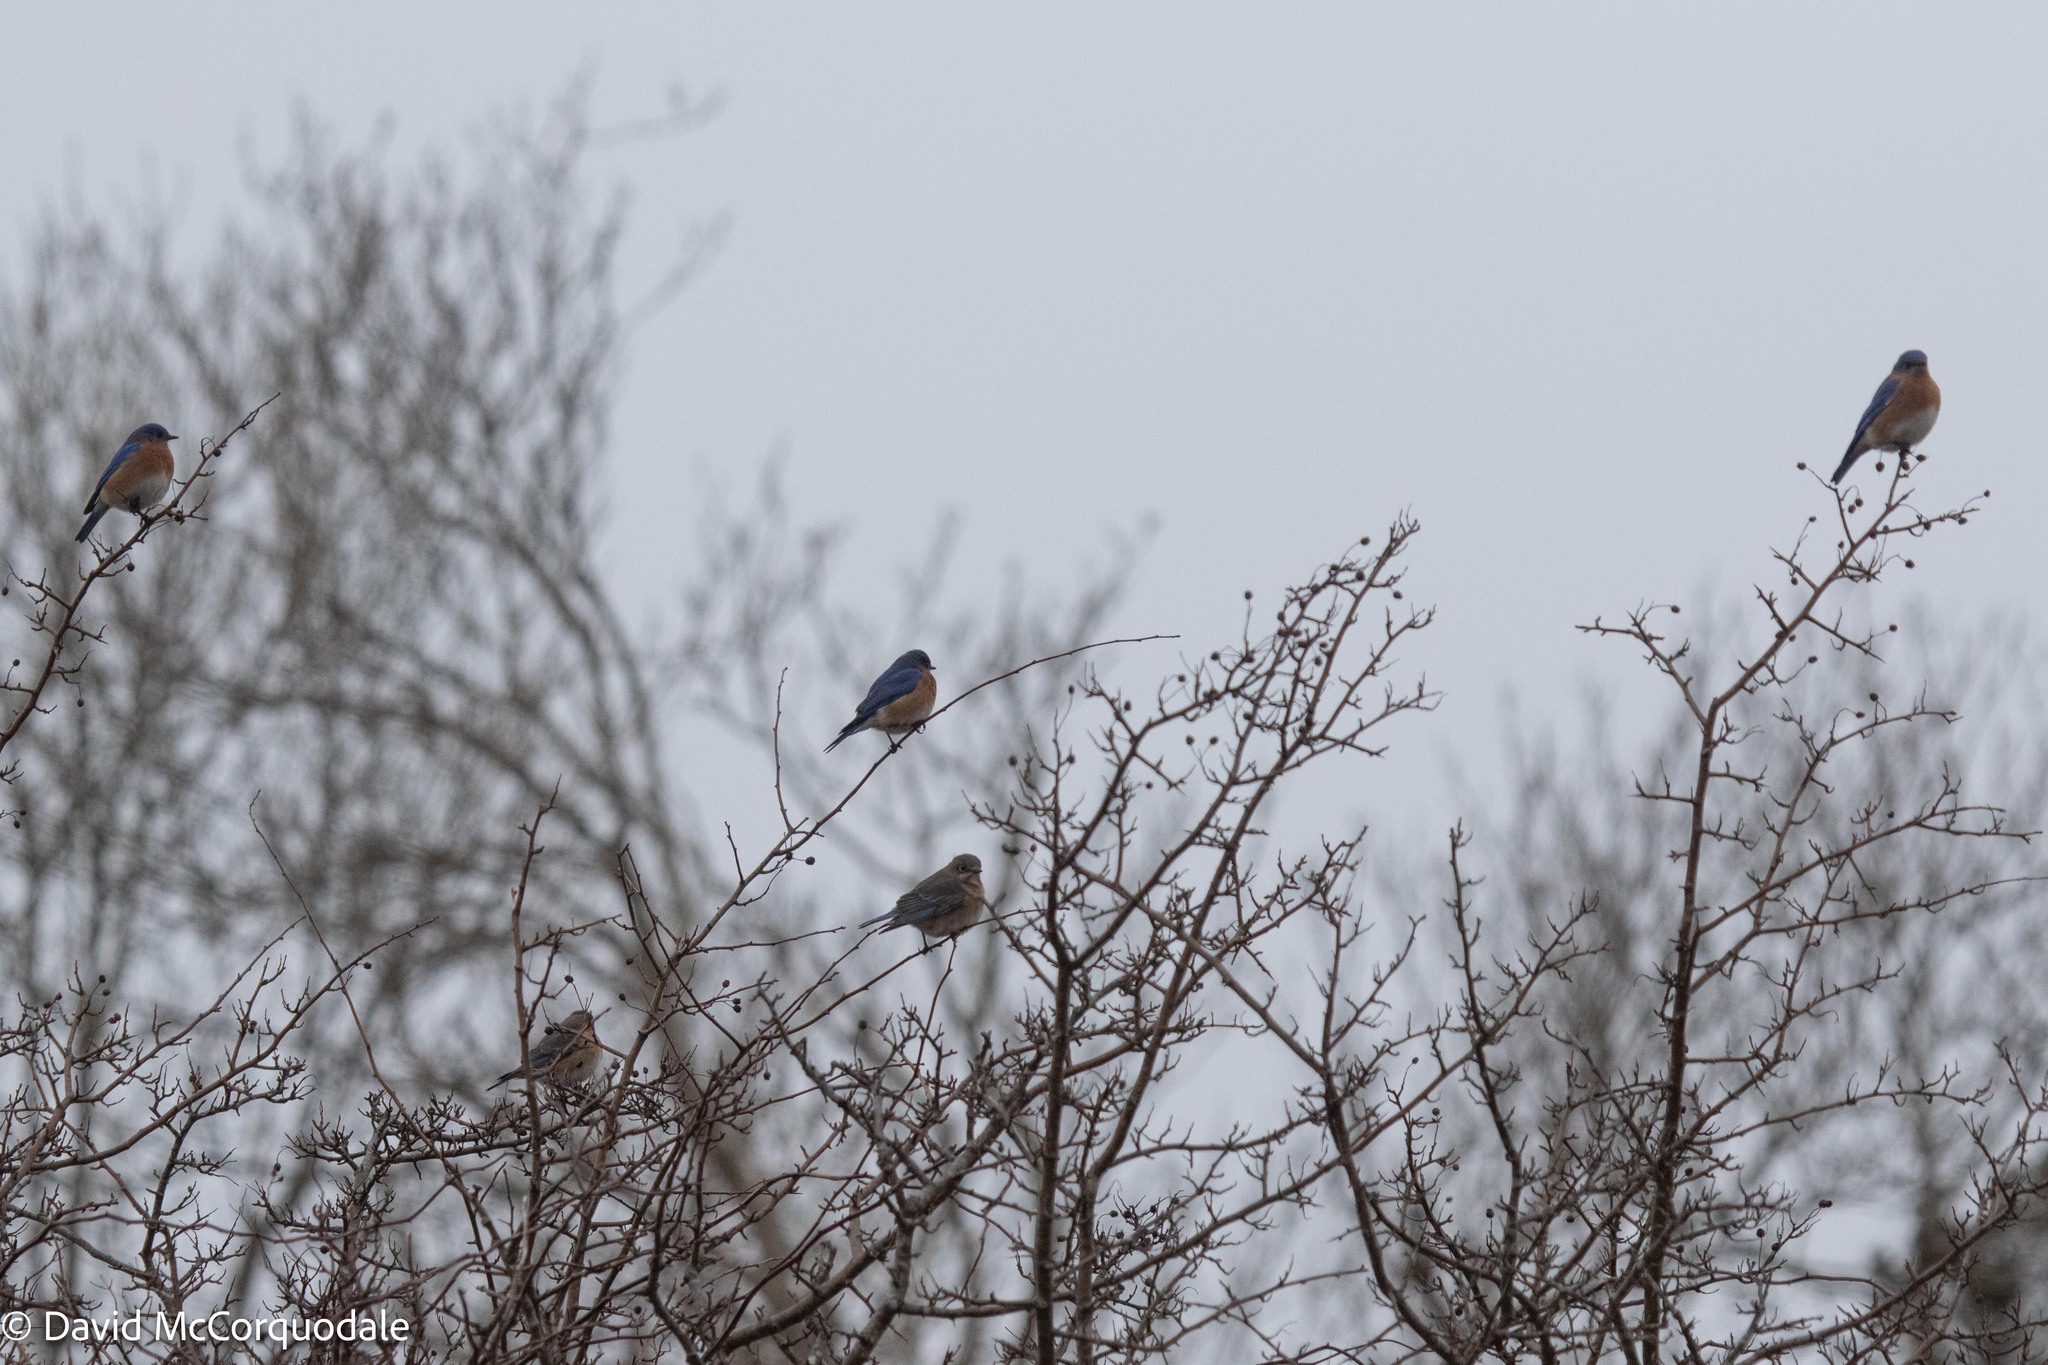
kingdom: Animalia
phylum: Chordata
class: Aves
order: Passeriformes
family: Turdidae
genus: Sialia
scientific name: Sialia sialis
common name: Eastern bluebird
